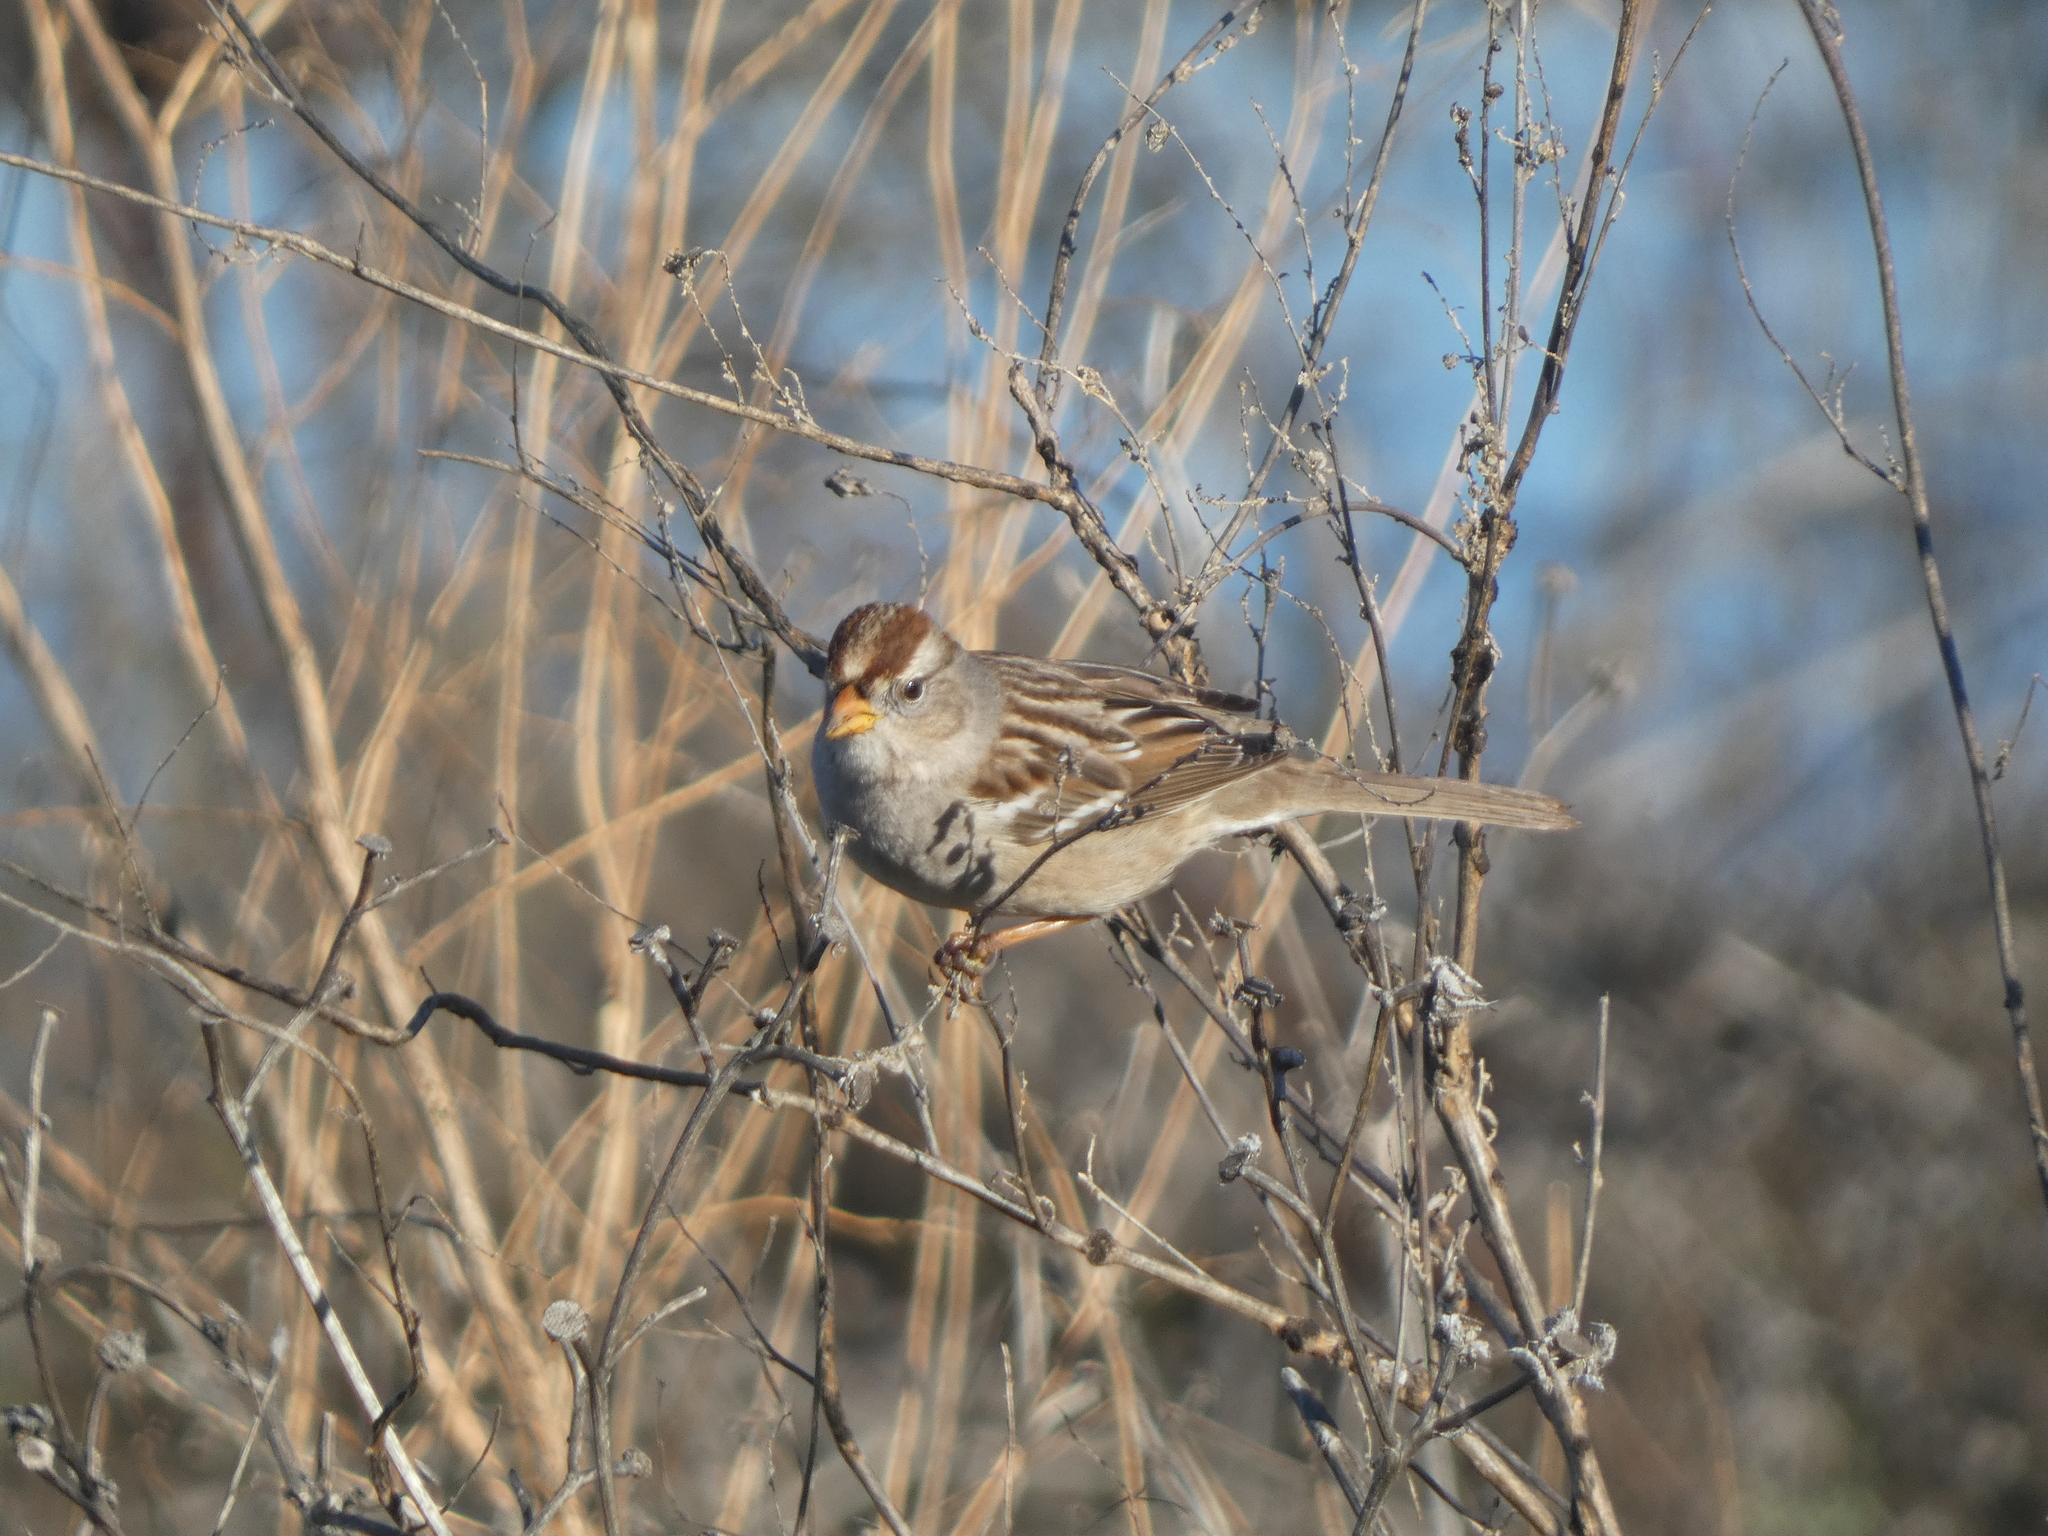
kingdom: Animalia
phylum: Chordata
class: Aves
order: Passeriformes
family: Passerellidae
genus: Zonotrichia
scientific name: Zonotrichia leucophrys
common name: White-crowned sparrow
